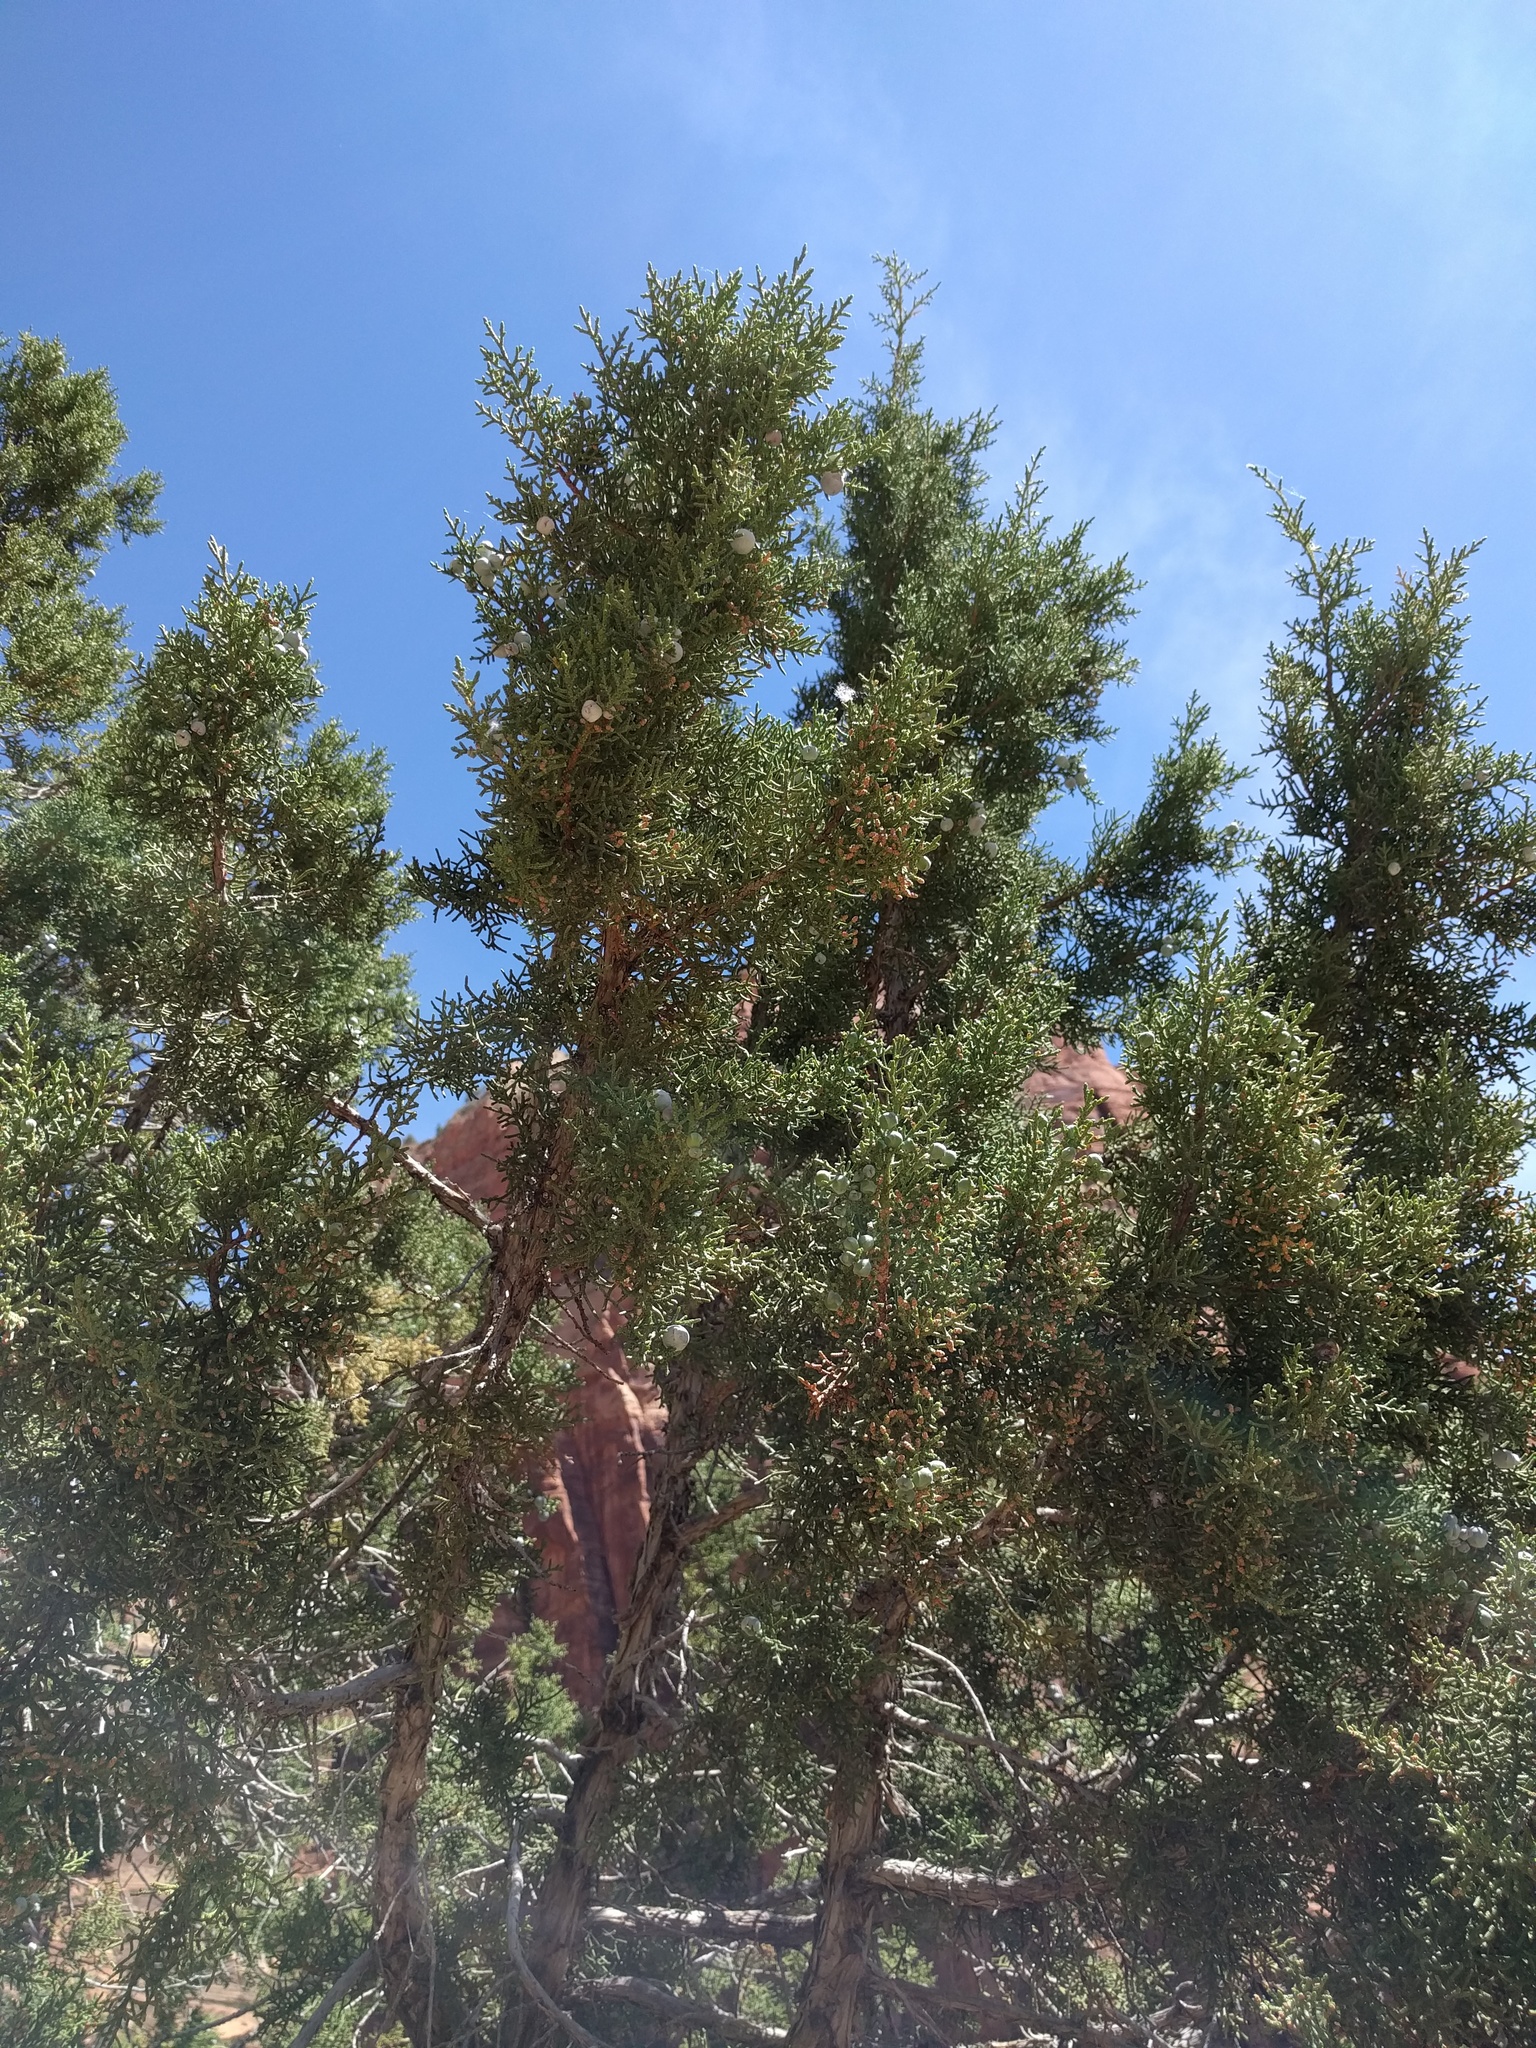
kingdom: Plantae
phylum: Tracheophyta
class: Pinopsida
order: Pinales
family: Cupressaceae
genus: Juniperus
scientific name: Juniperus osteosperma
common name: Utah juniper
